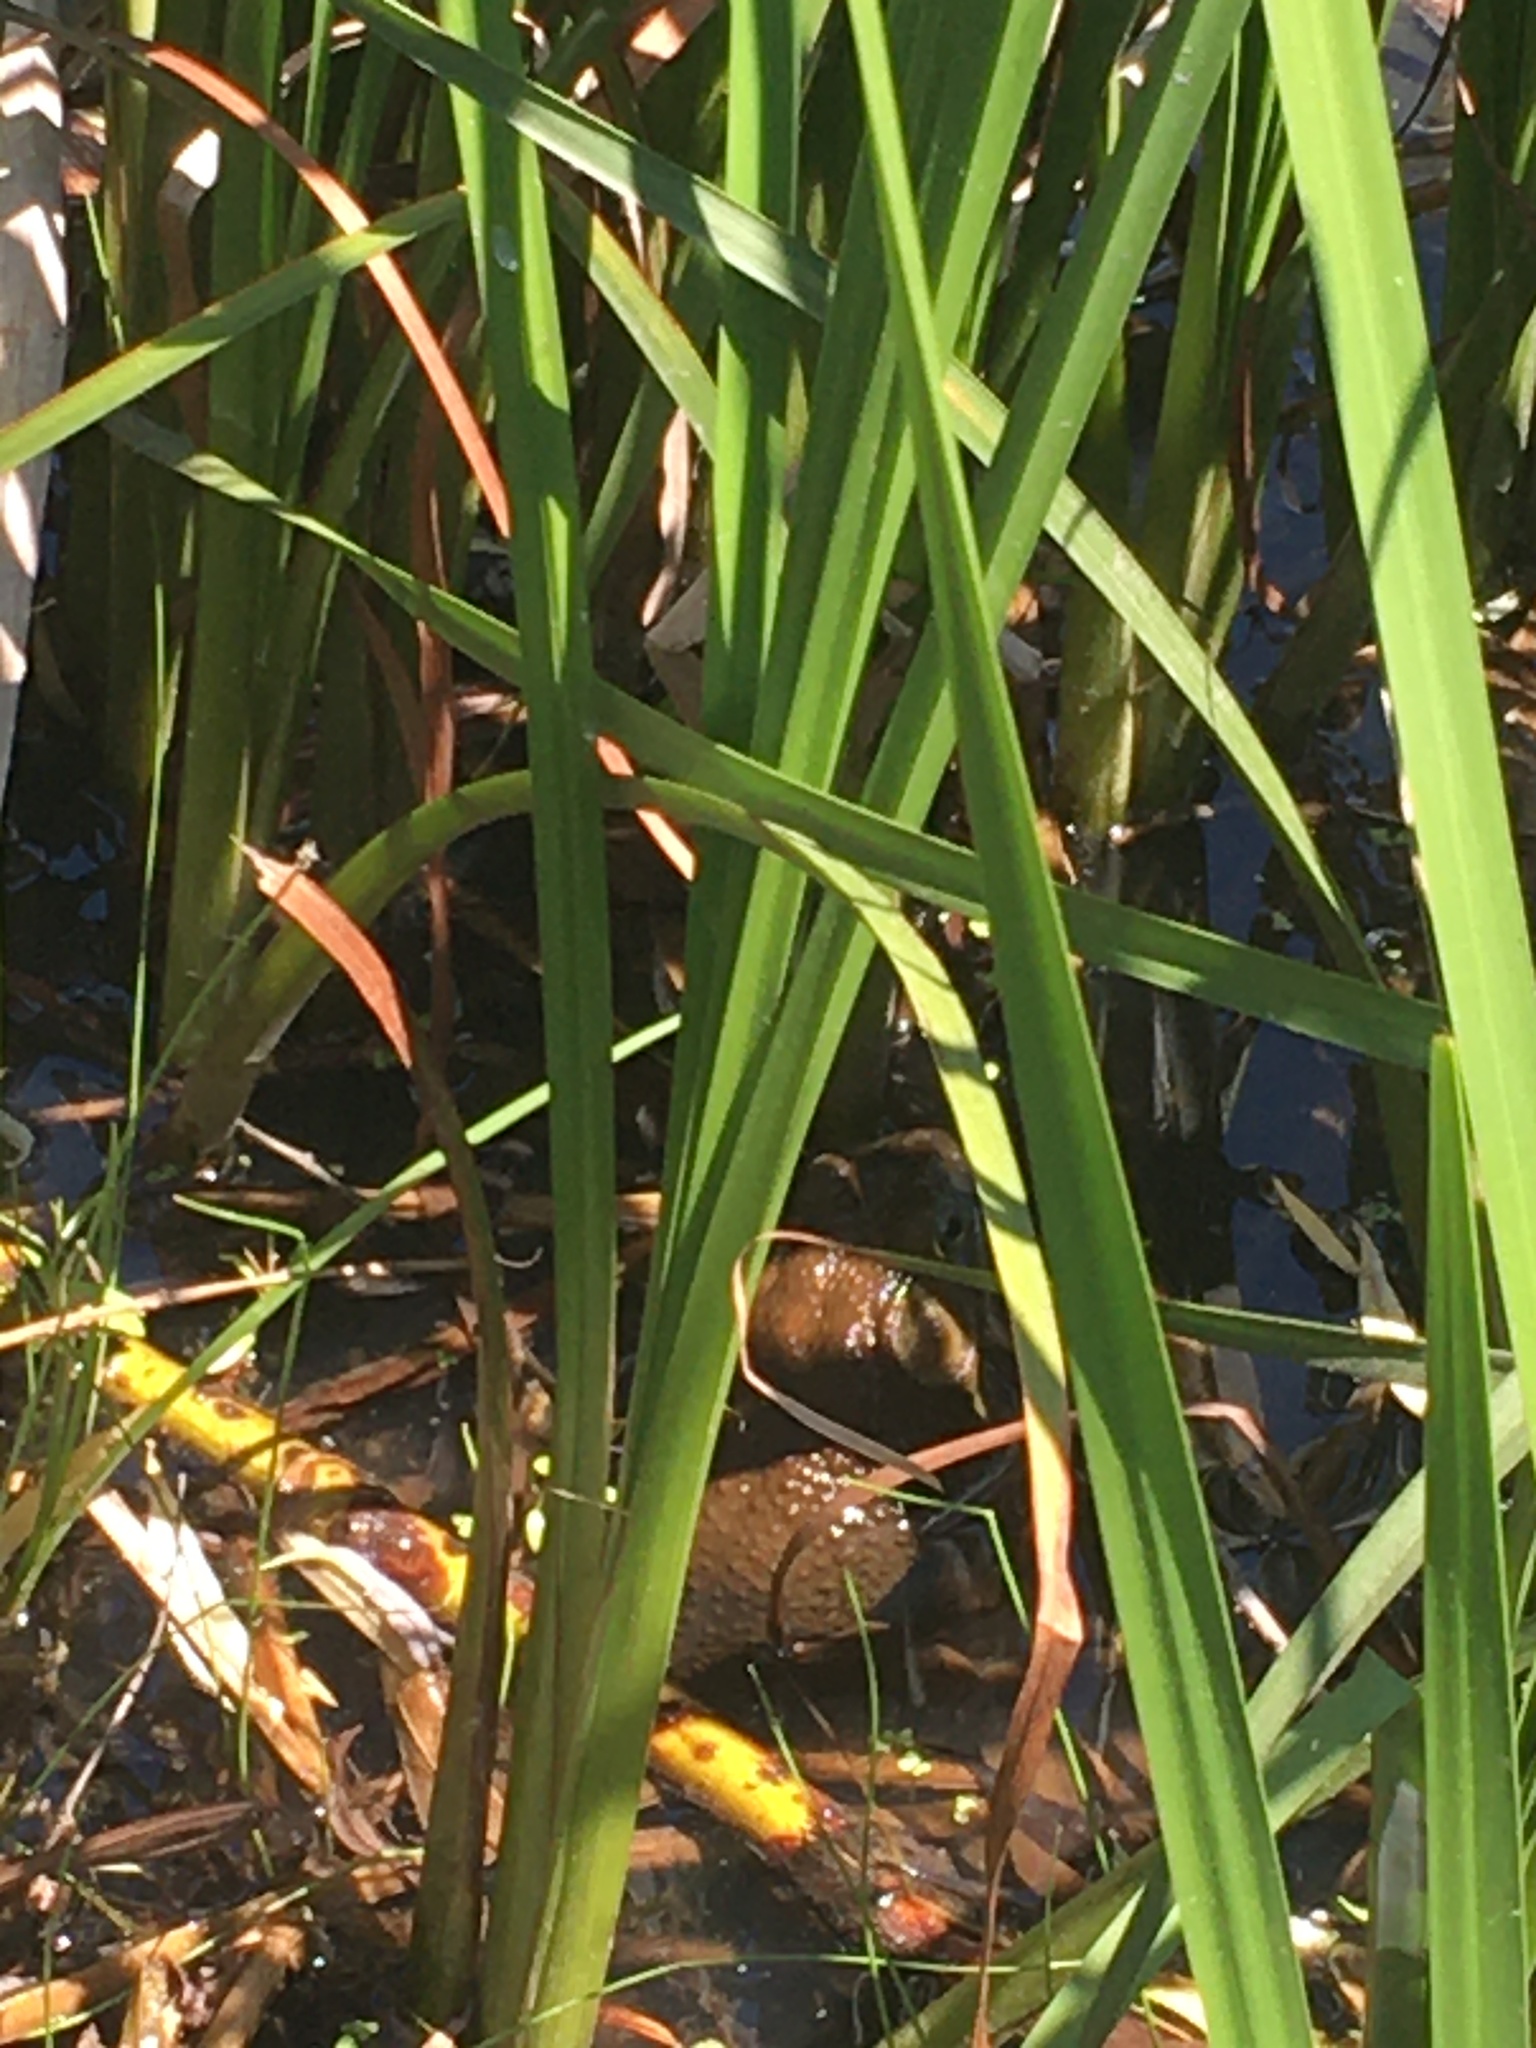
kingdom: Animalia
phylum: Chordata
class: Amphibia
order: Anura
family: Ranidae
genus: Lithobates
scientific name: Lithobates catesbeianus
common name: American bullfrog
